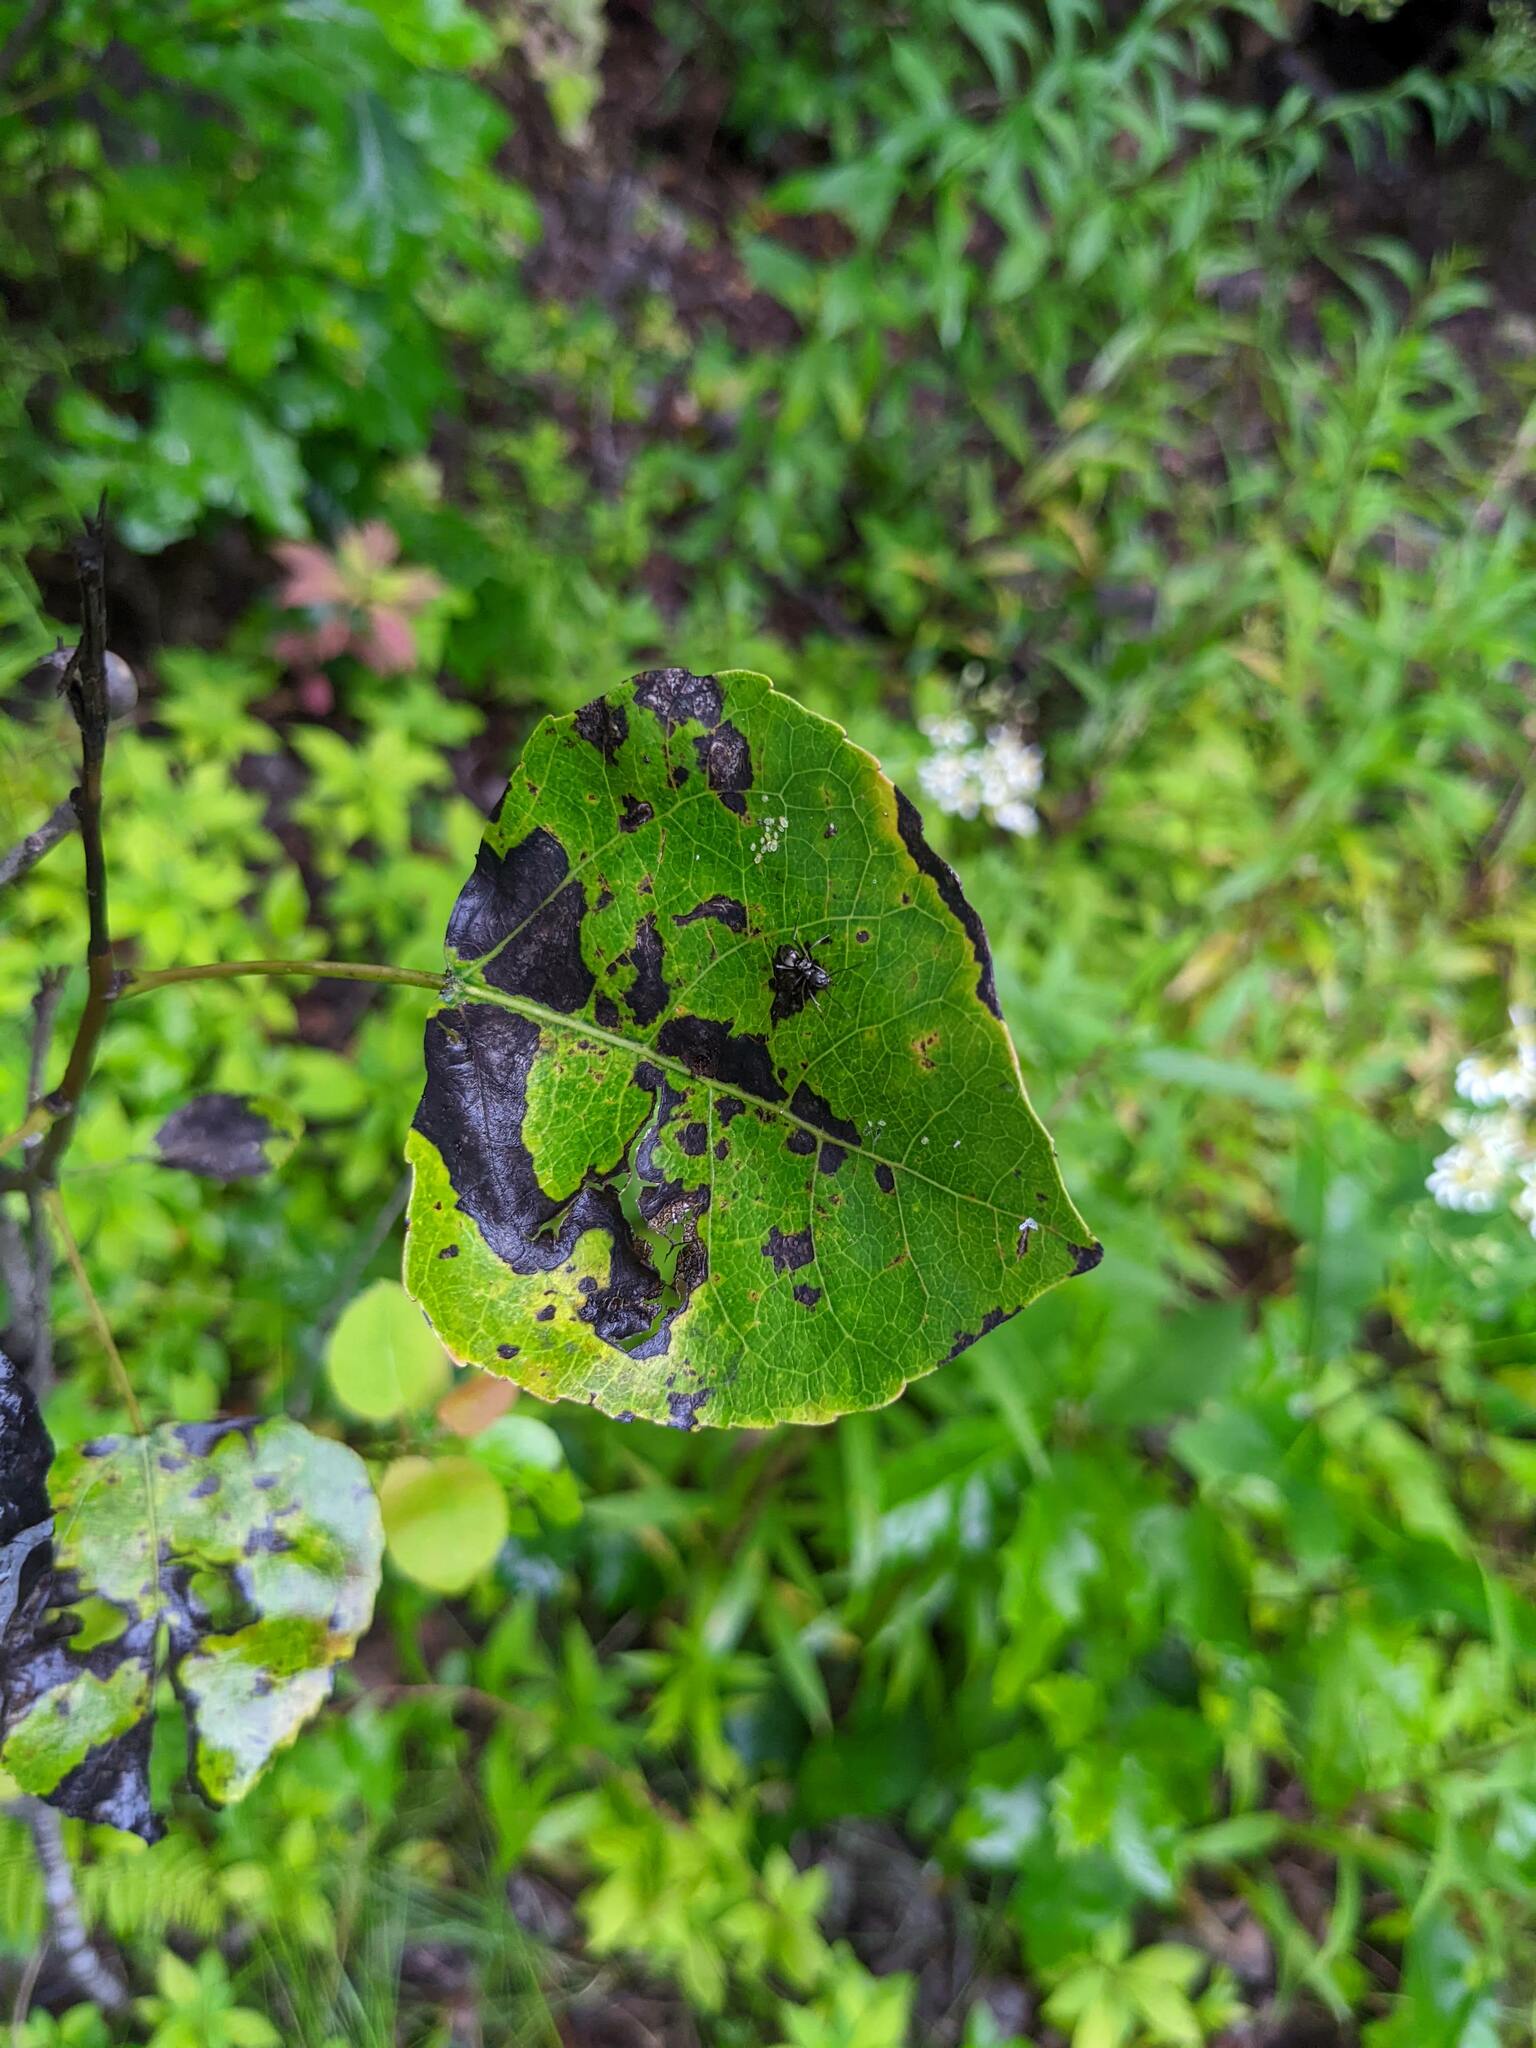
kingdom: Plantae
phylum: Tracheophyta
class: Magnoliopsida
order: Malpighiales
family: Salicaceae
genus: Populus
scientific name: Populus tremuloides
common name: Quaking aspen
